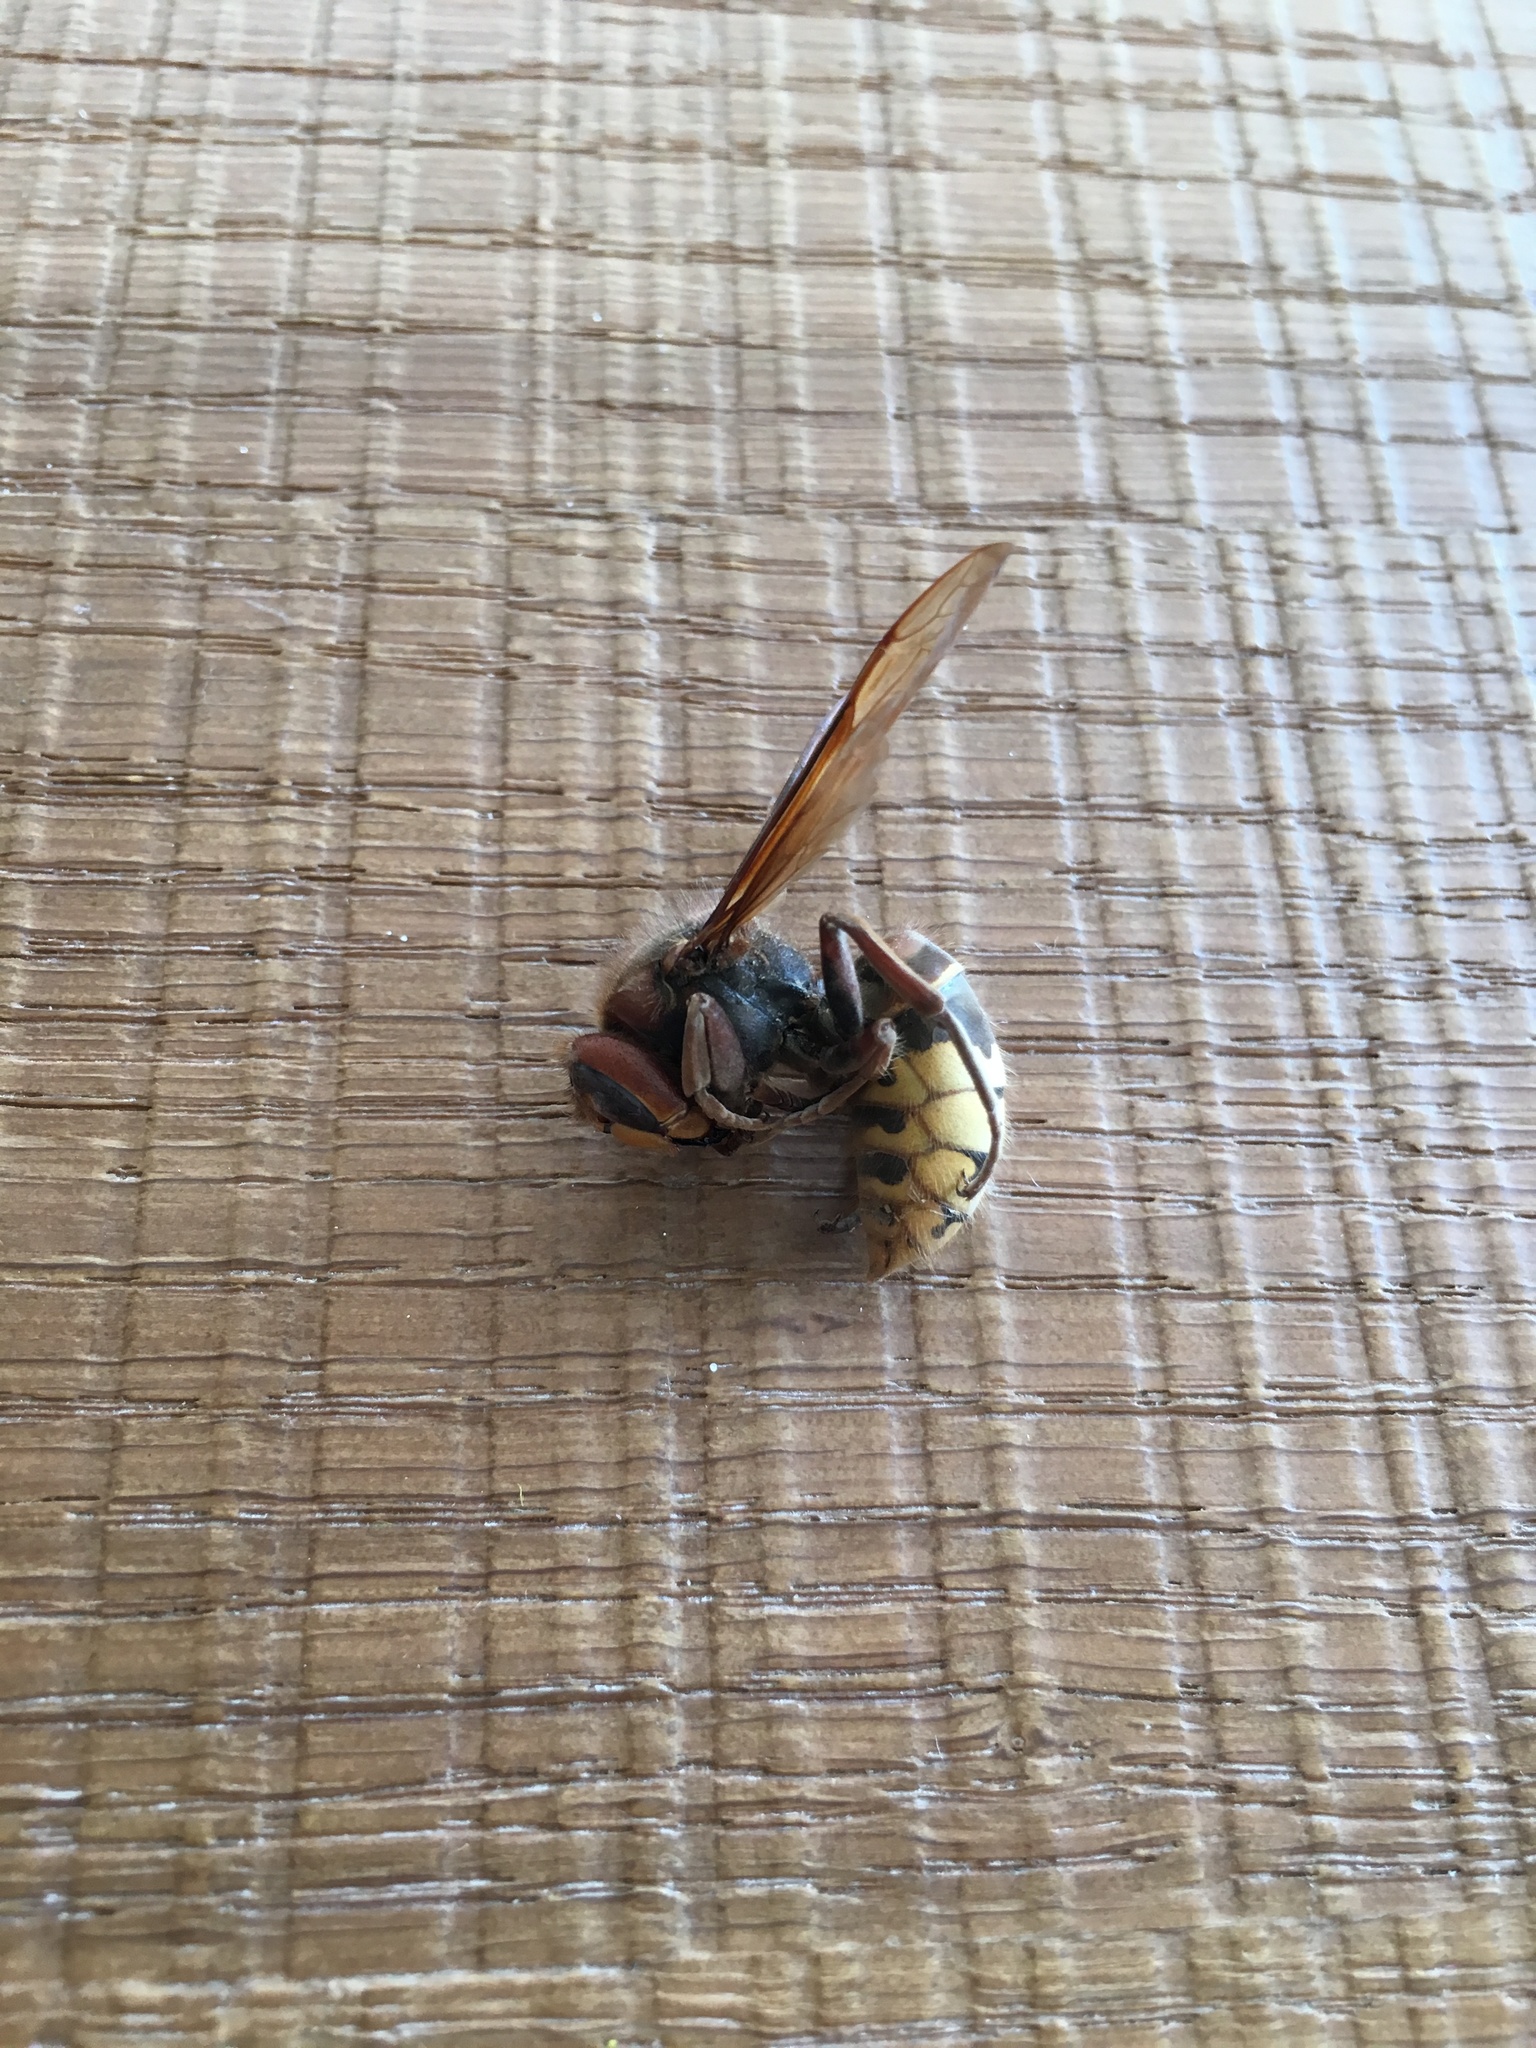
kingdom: Animalia
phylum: Arthropoda
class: Insecta
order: Hymenoptera
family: Vespidae
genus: Vespa
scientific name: Vespa crabro
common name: Hornet
